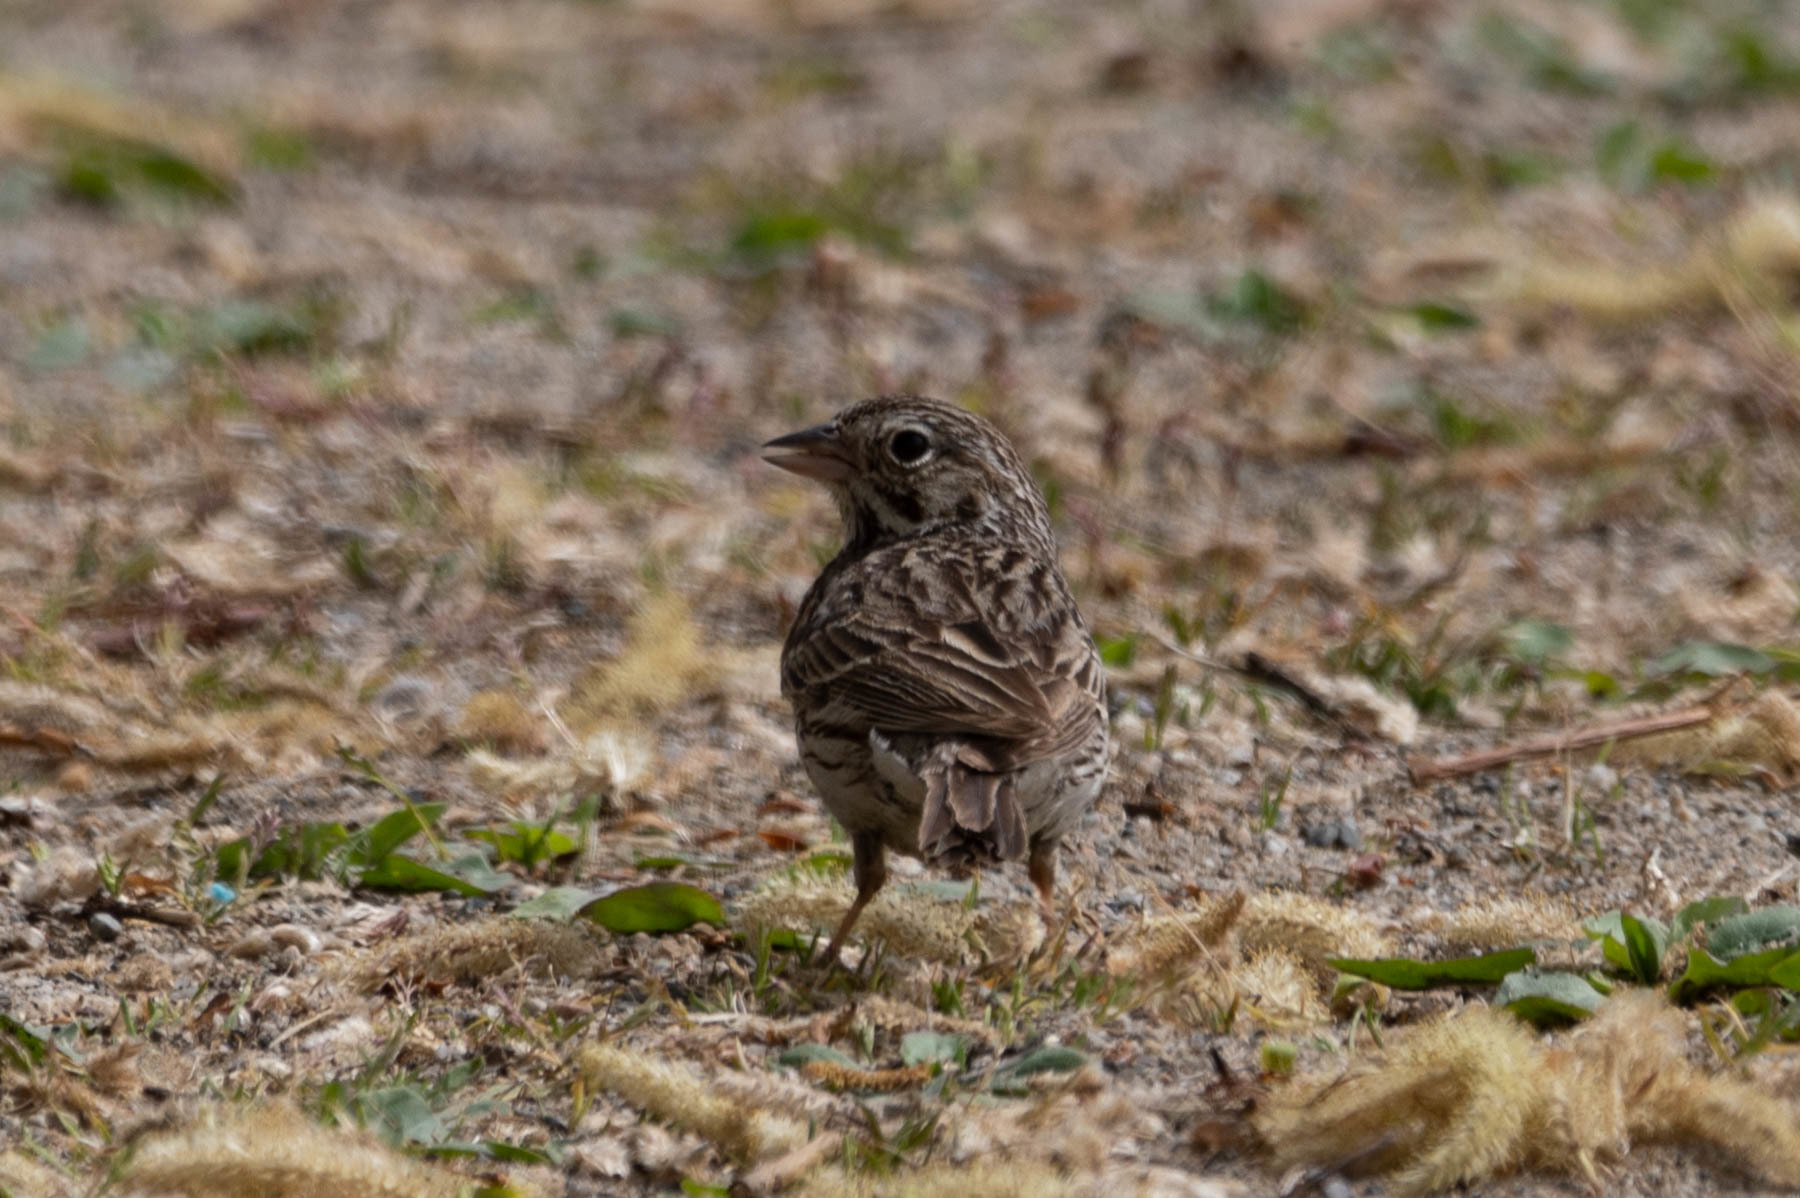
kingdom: Animalia
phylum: Chordata
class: Aves
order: Passeriformes
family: Passerellidae
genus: Pooecetes
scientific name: Pooecetes gramineus
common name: Vesper sparrow
